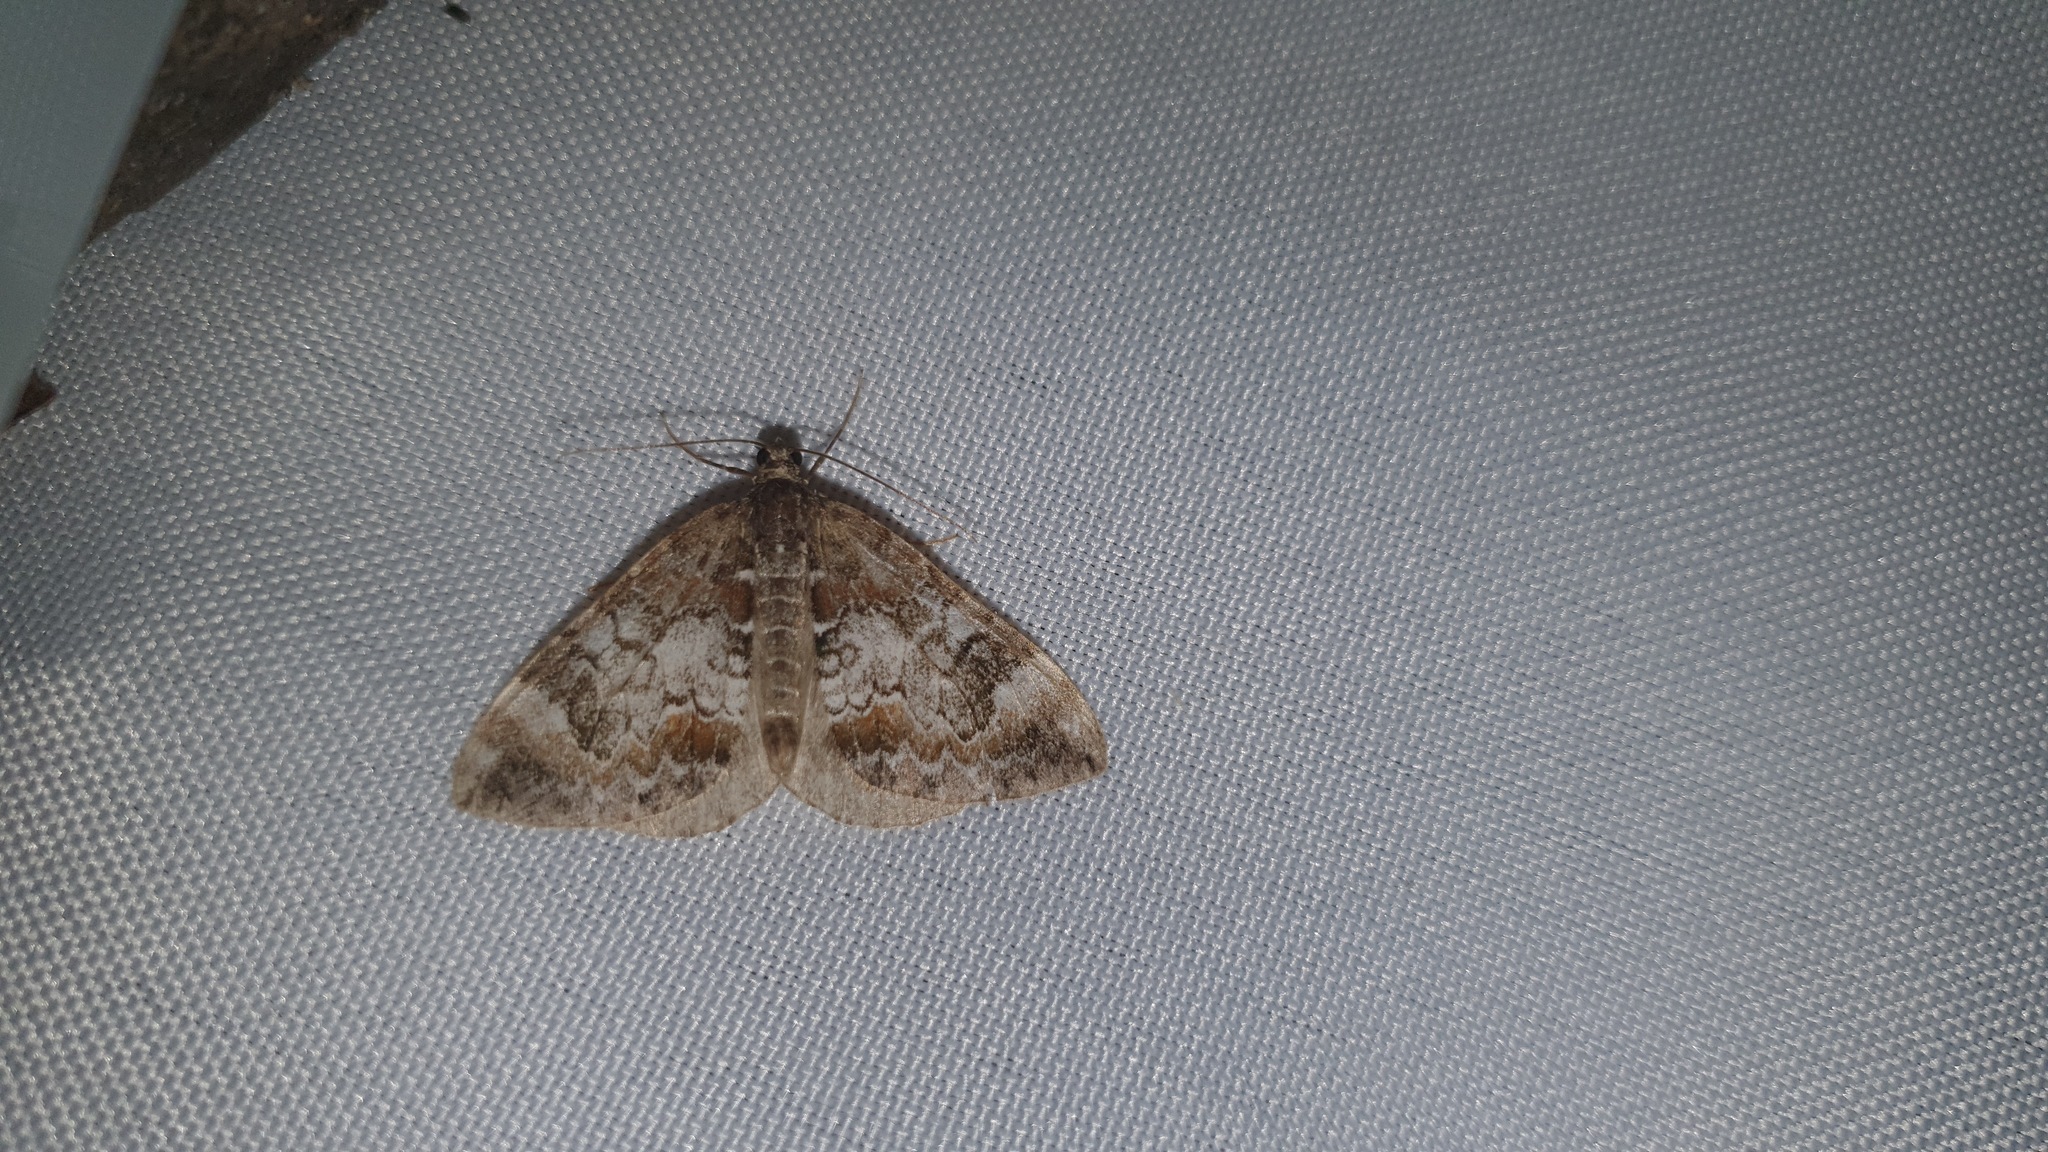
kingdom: Animalia
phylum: Arthropoda
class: Insecta
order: Lepidoptera
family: Geometridae
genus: Dysstroma
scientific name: Dysstroma truncata
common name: Common marbled carpet
